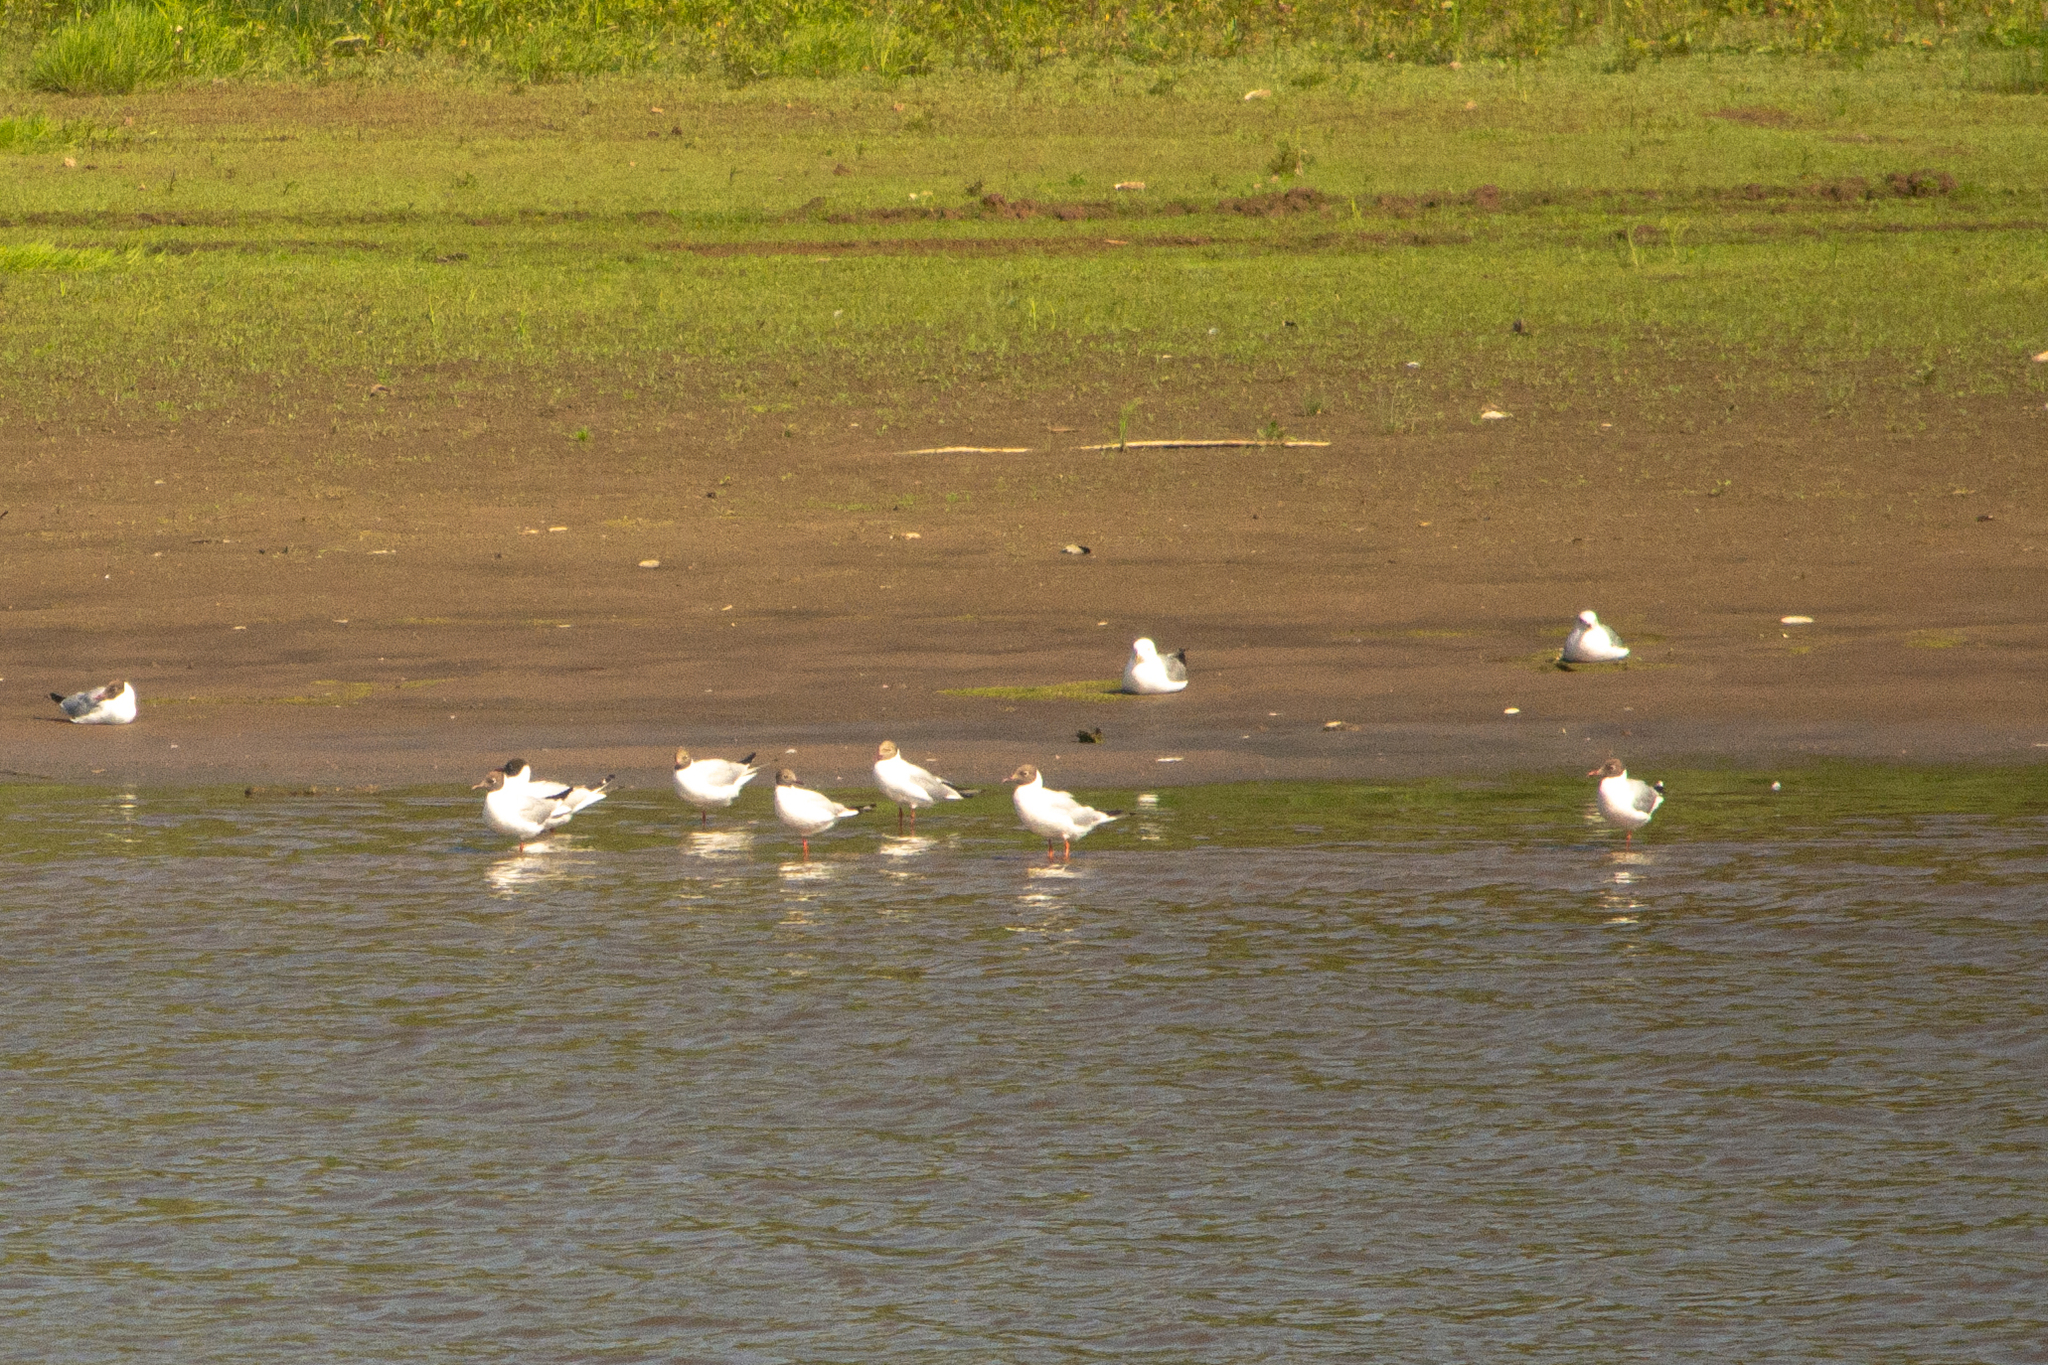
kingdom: Animalia
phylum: Chordata
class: Aves
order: Charadriiformes
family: Laridae
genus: Chroicocephalus
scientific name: Chroicocephalus ridibundus
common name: Black-headed gull
